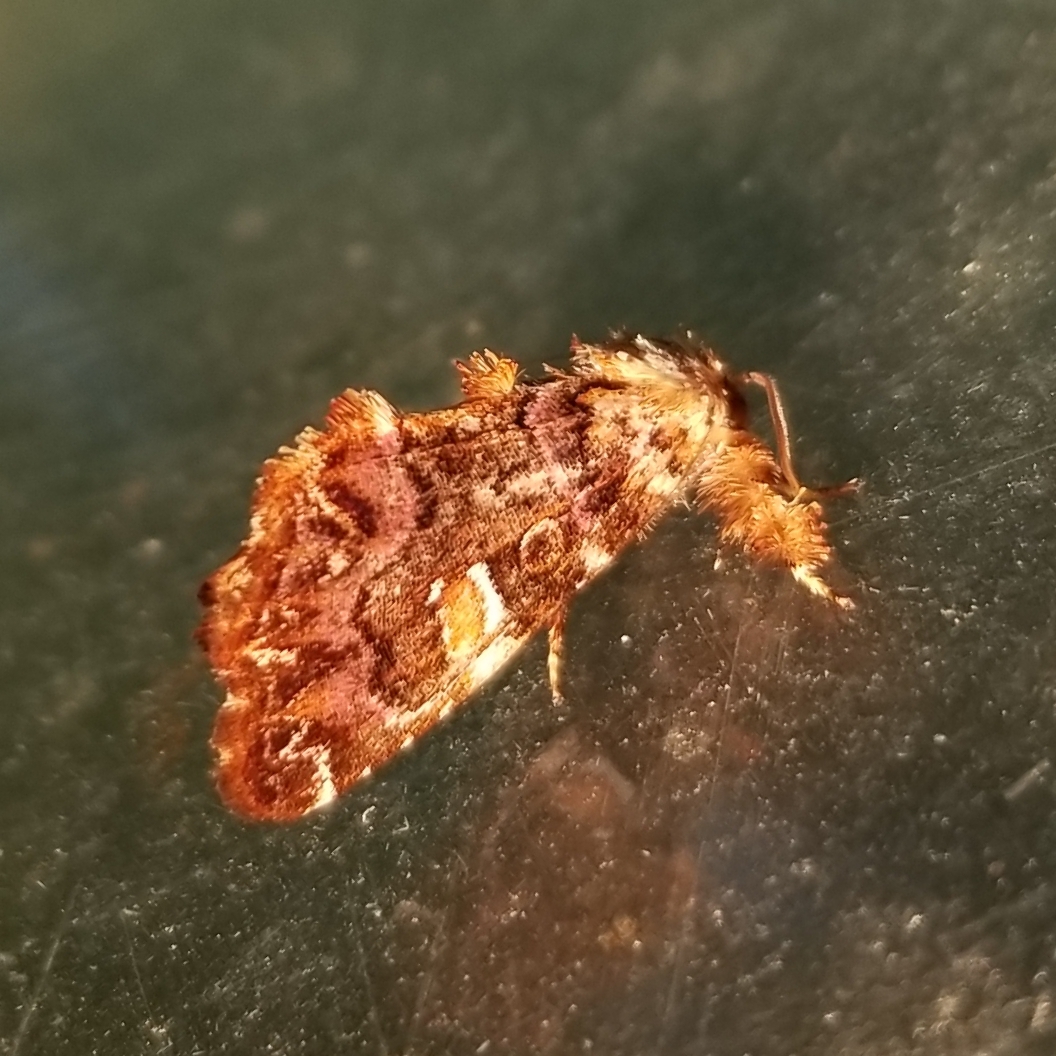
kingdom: Animalia
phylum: Arthropoda
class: Insecta
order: Lepidoptera
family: Noctuidae
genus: Callopistria
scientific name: Callopistria mollissima
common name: Pink-shaded fern moth
